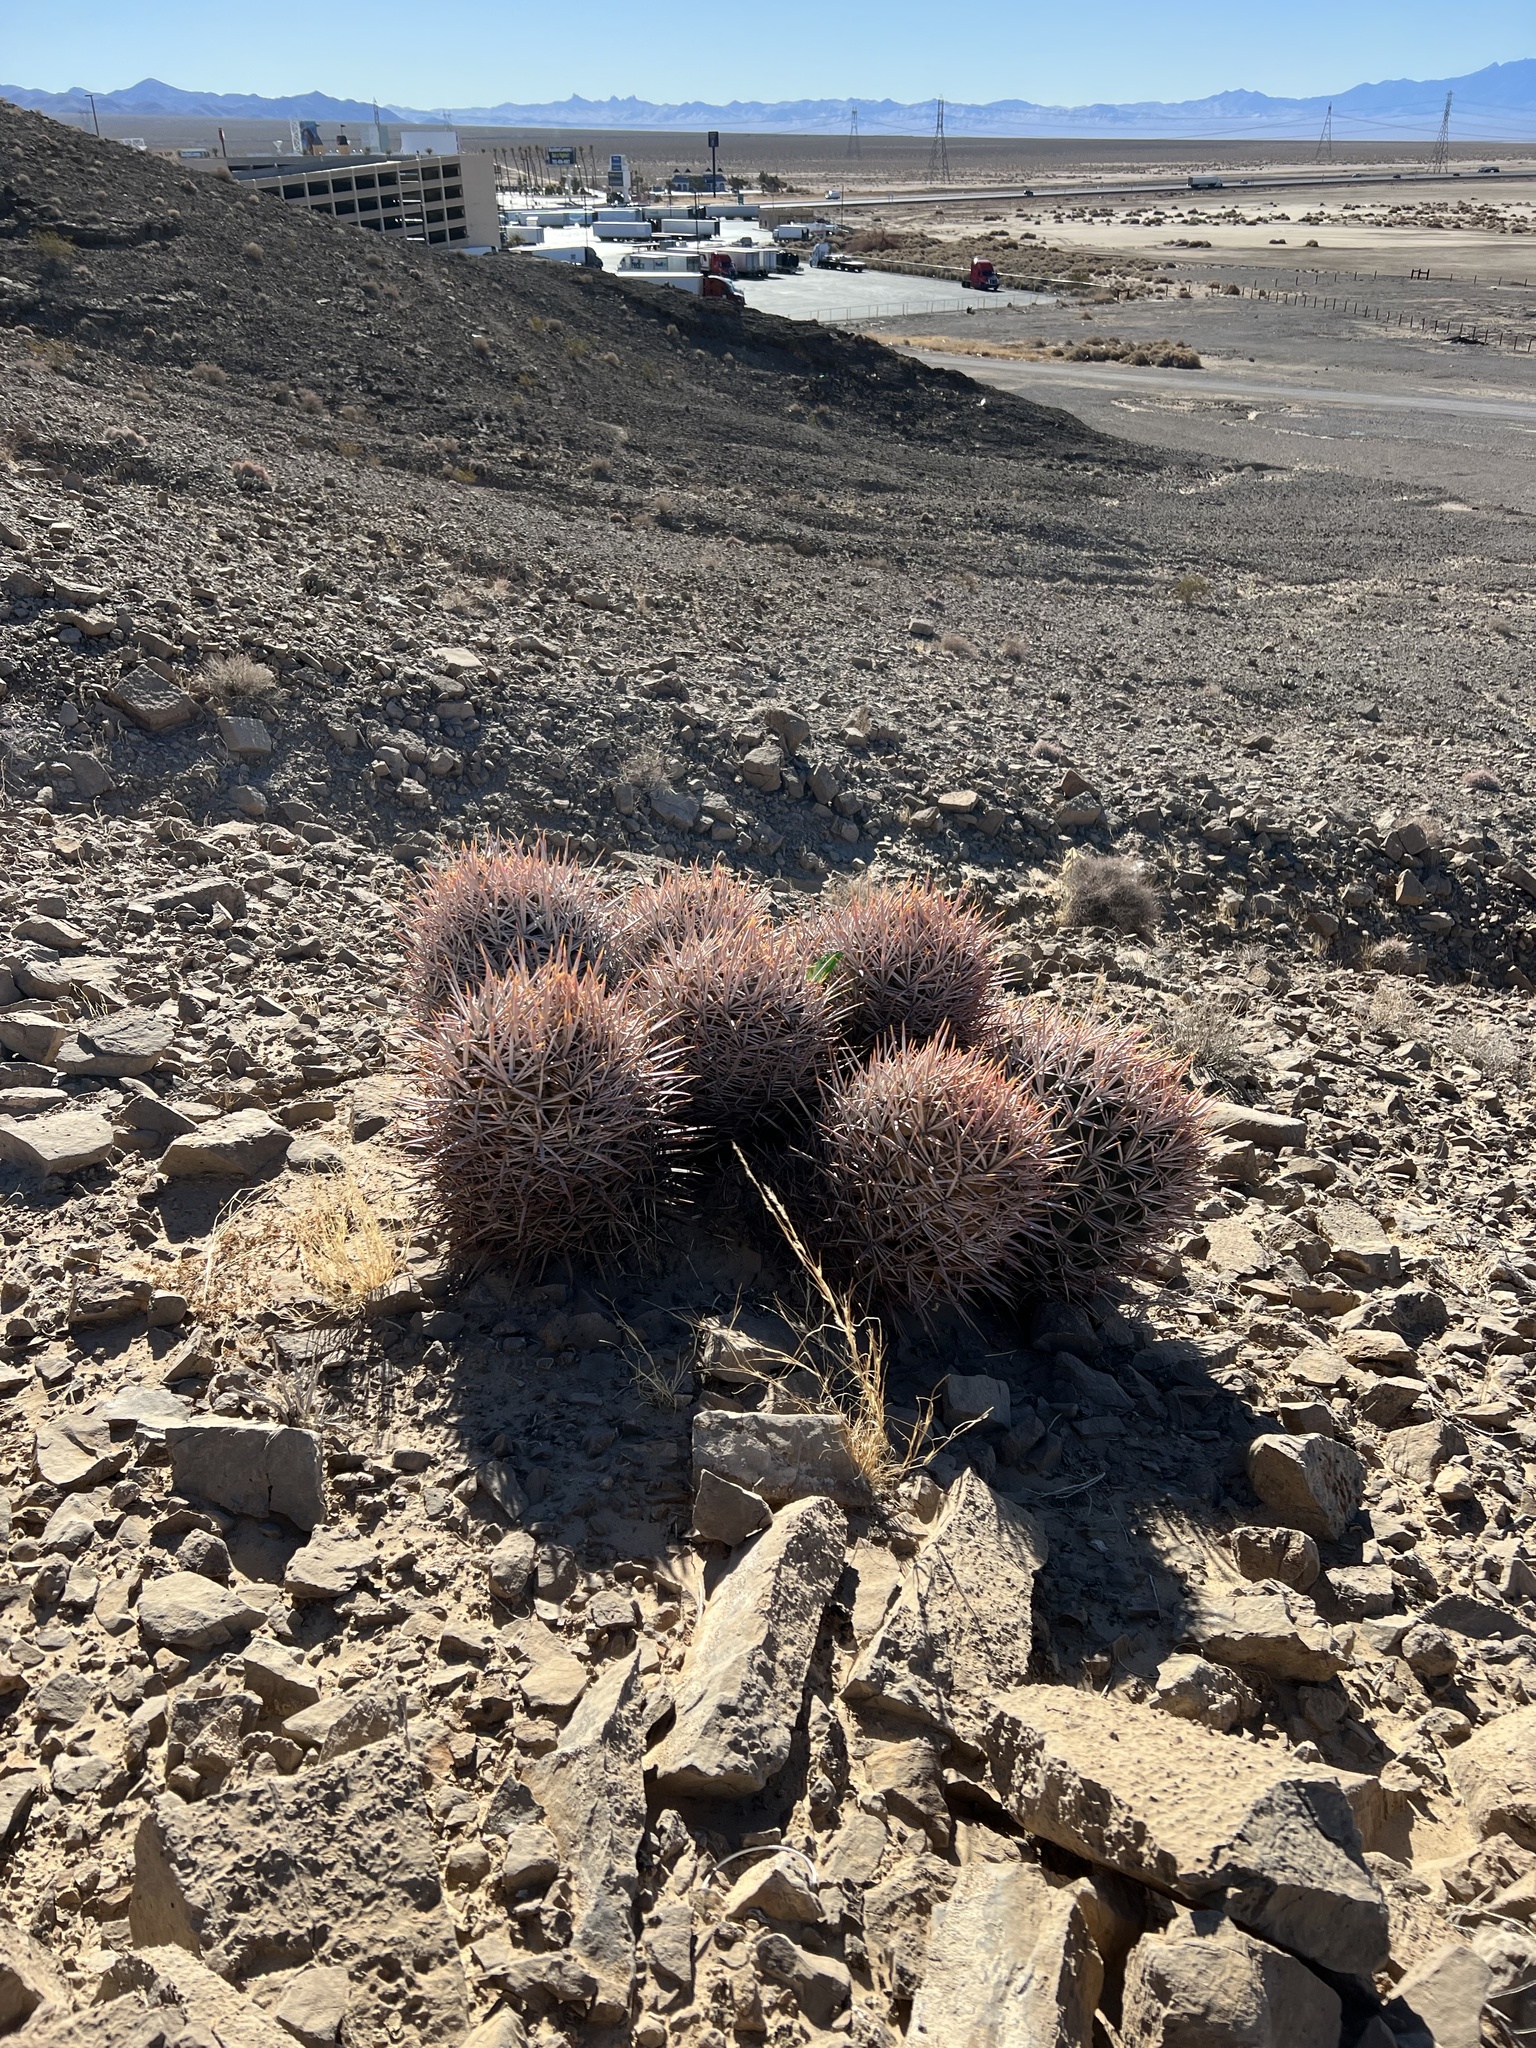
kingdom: Plantae
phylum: Tracheophyta
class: Magnoliopsida
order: Caryophyllales
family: Cactaceae
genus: Echinocactus
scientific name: Echinocactus polycephalus
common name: Cottontop cactus
